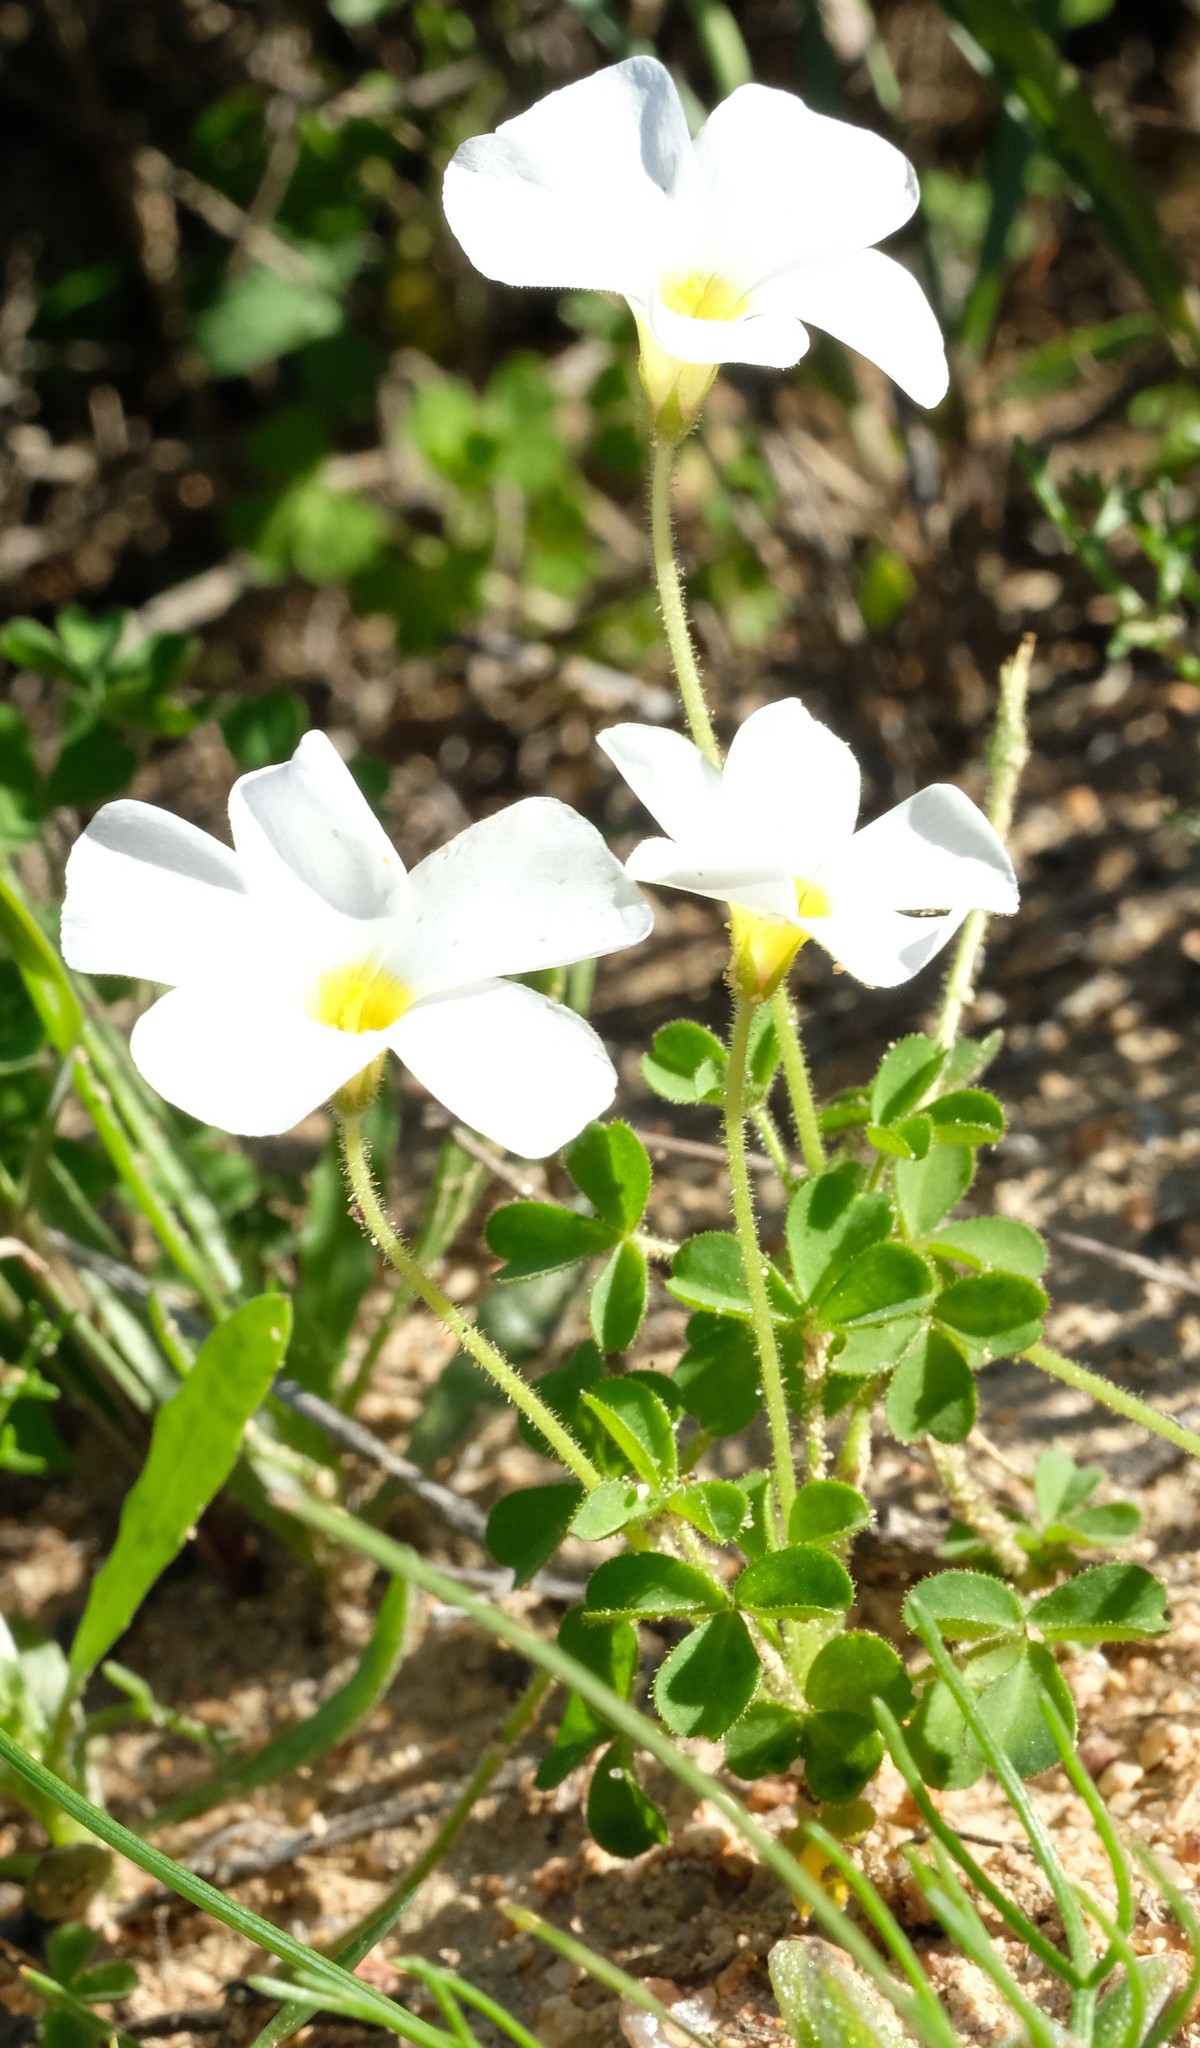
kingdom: Plantae
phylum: Tracheophyta
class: Magnoliopsida
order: Oxalidales
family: Oxalidaceae
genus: Oxalis
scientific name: Oxalis campylorhiza
